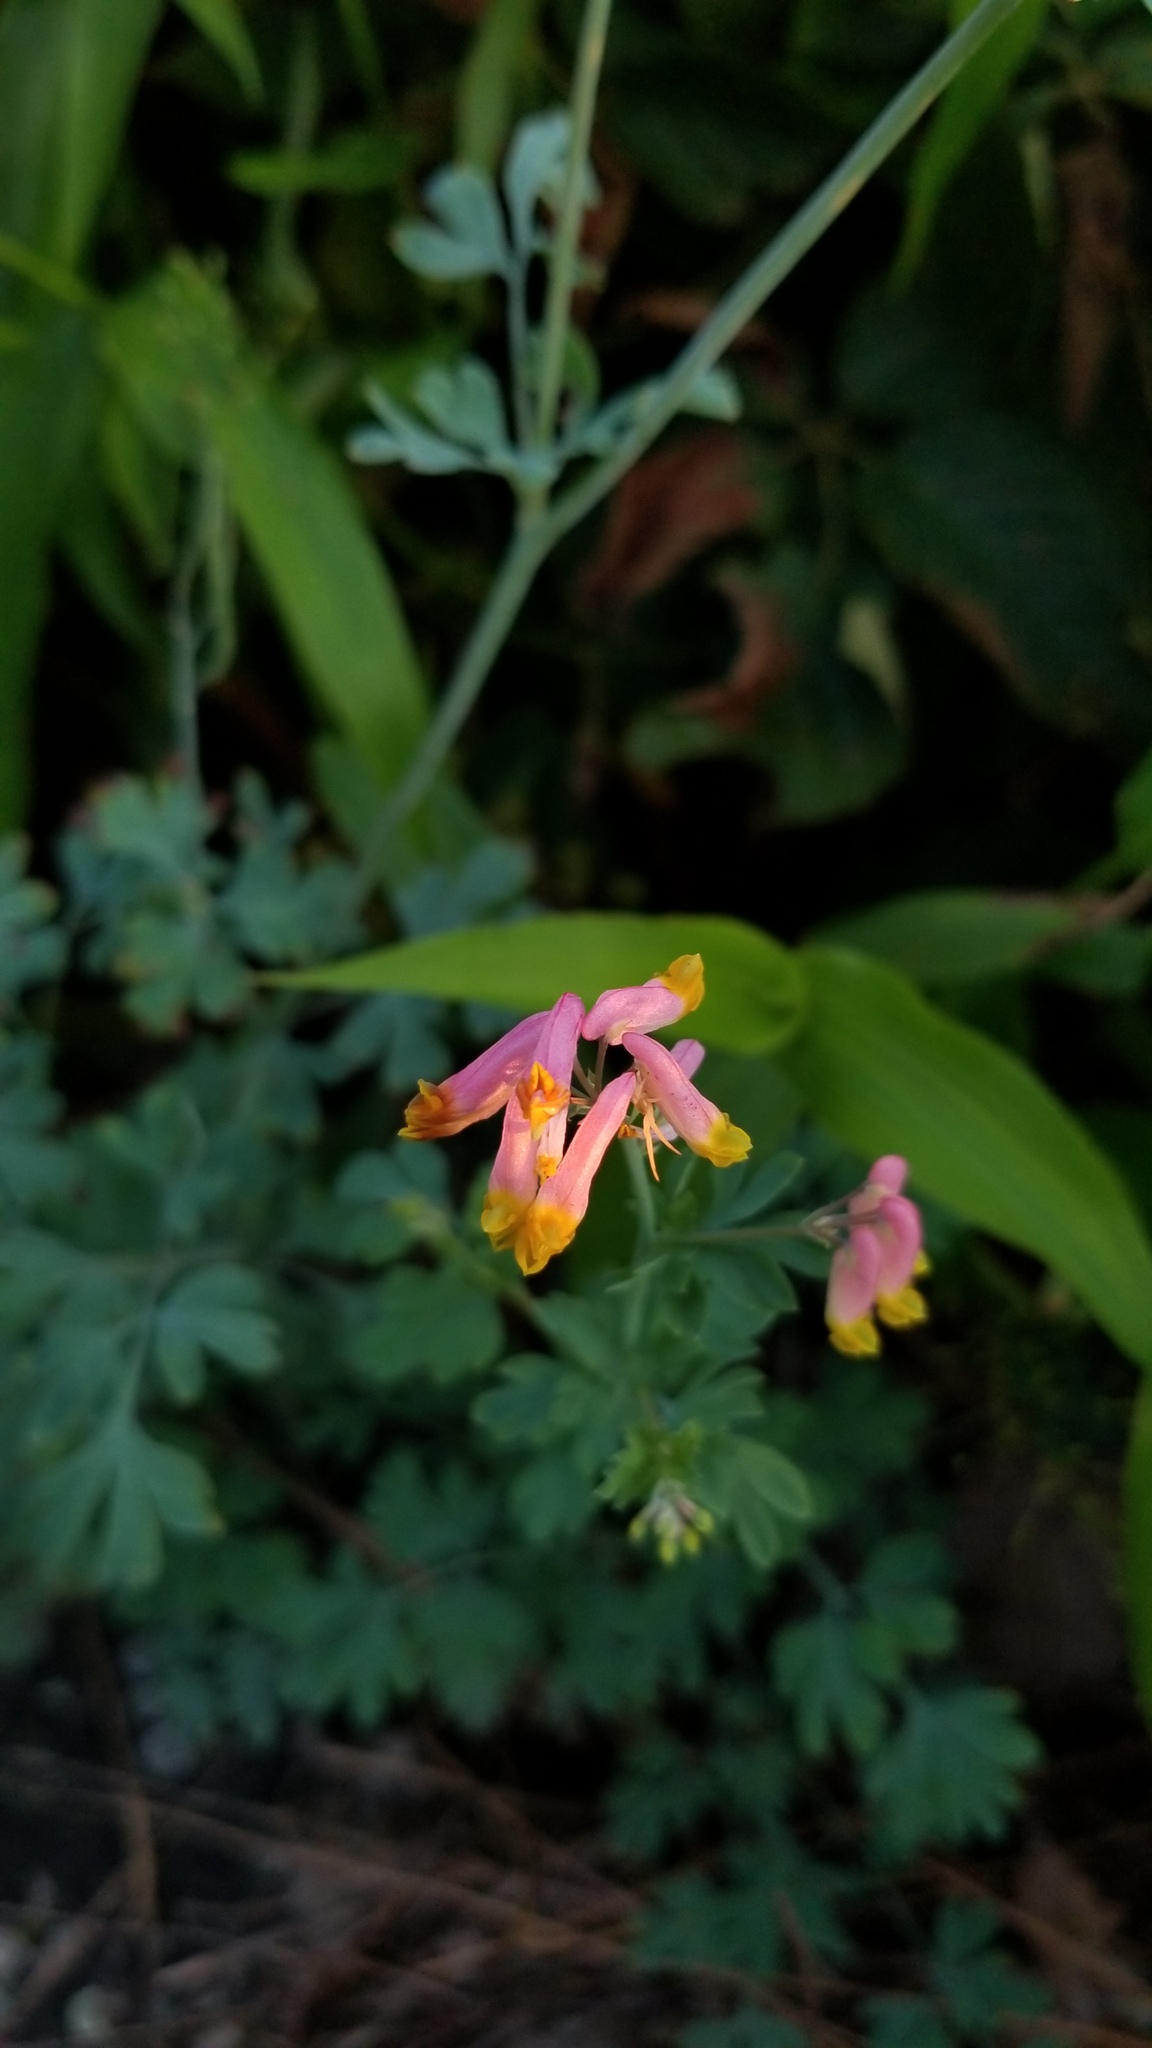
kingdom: Plantae
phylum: Tracheophyta
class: Magnoliopsida
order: Ranunculales
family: Papaveraceae
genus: Capnoides
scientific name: Capnoides sempervirens
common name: Rock harlequin
